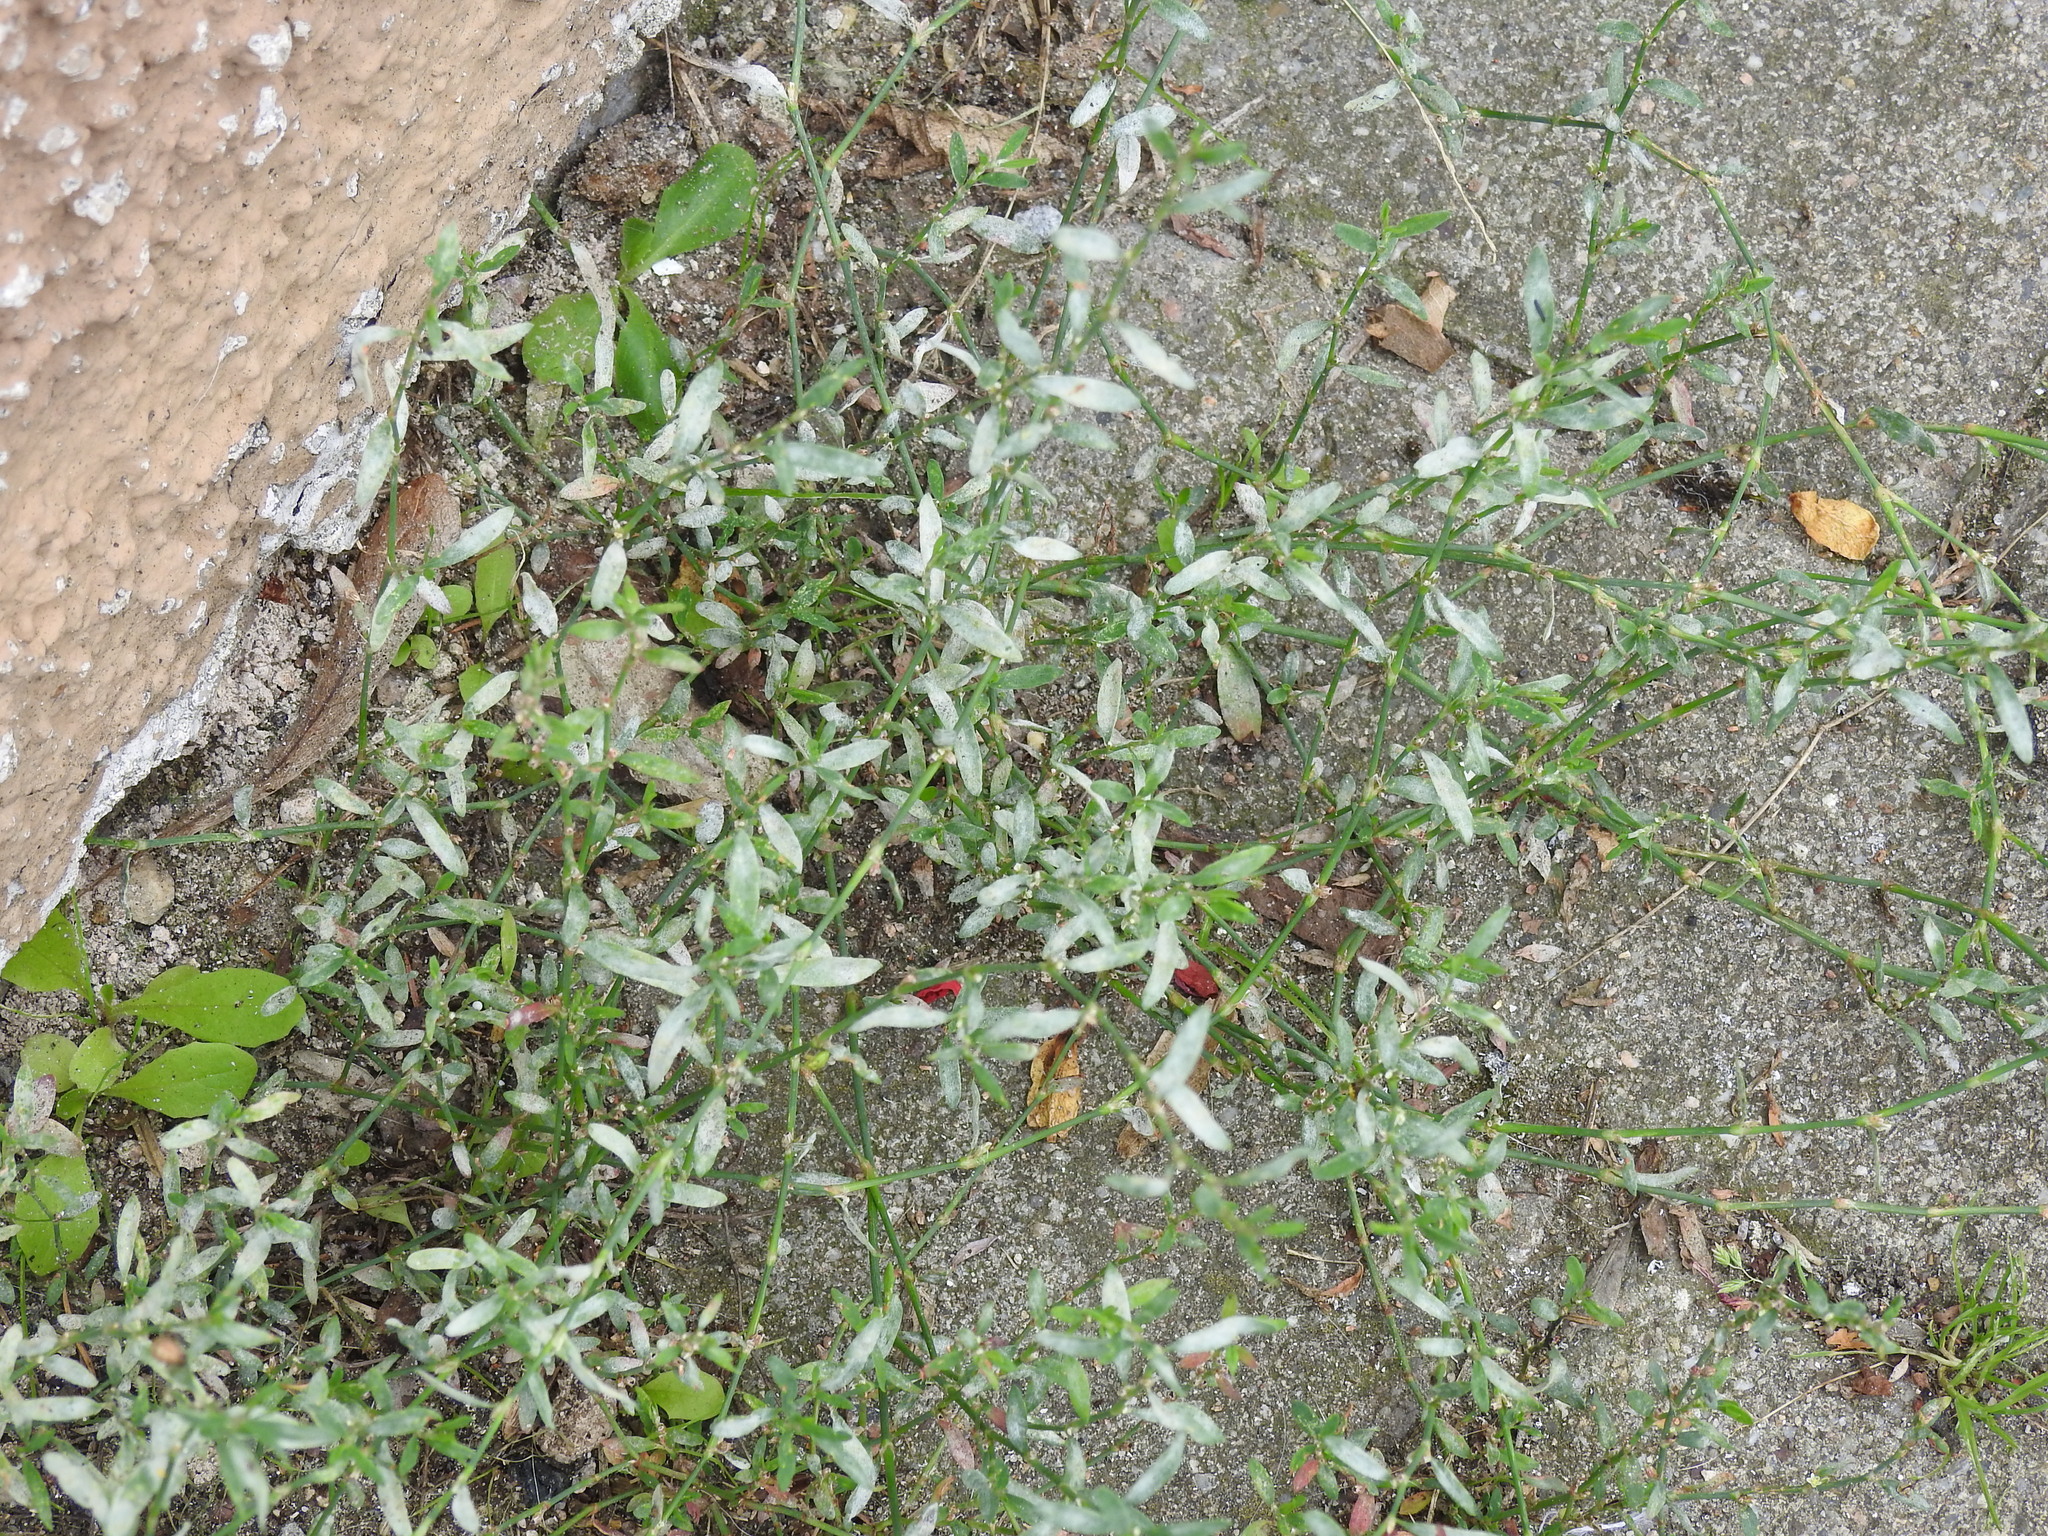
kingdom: Fungi
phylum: Ascomycota
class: Leotiomycetes
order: Helotiales
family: Erysiphaceae
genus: Erysiphe
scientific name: Erysiphe polygoni
